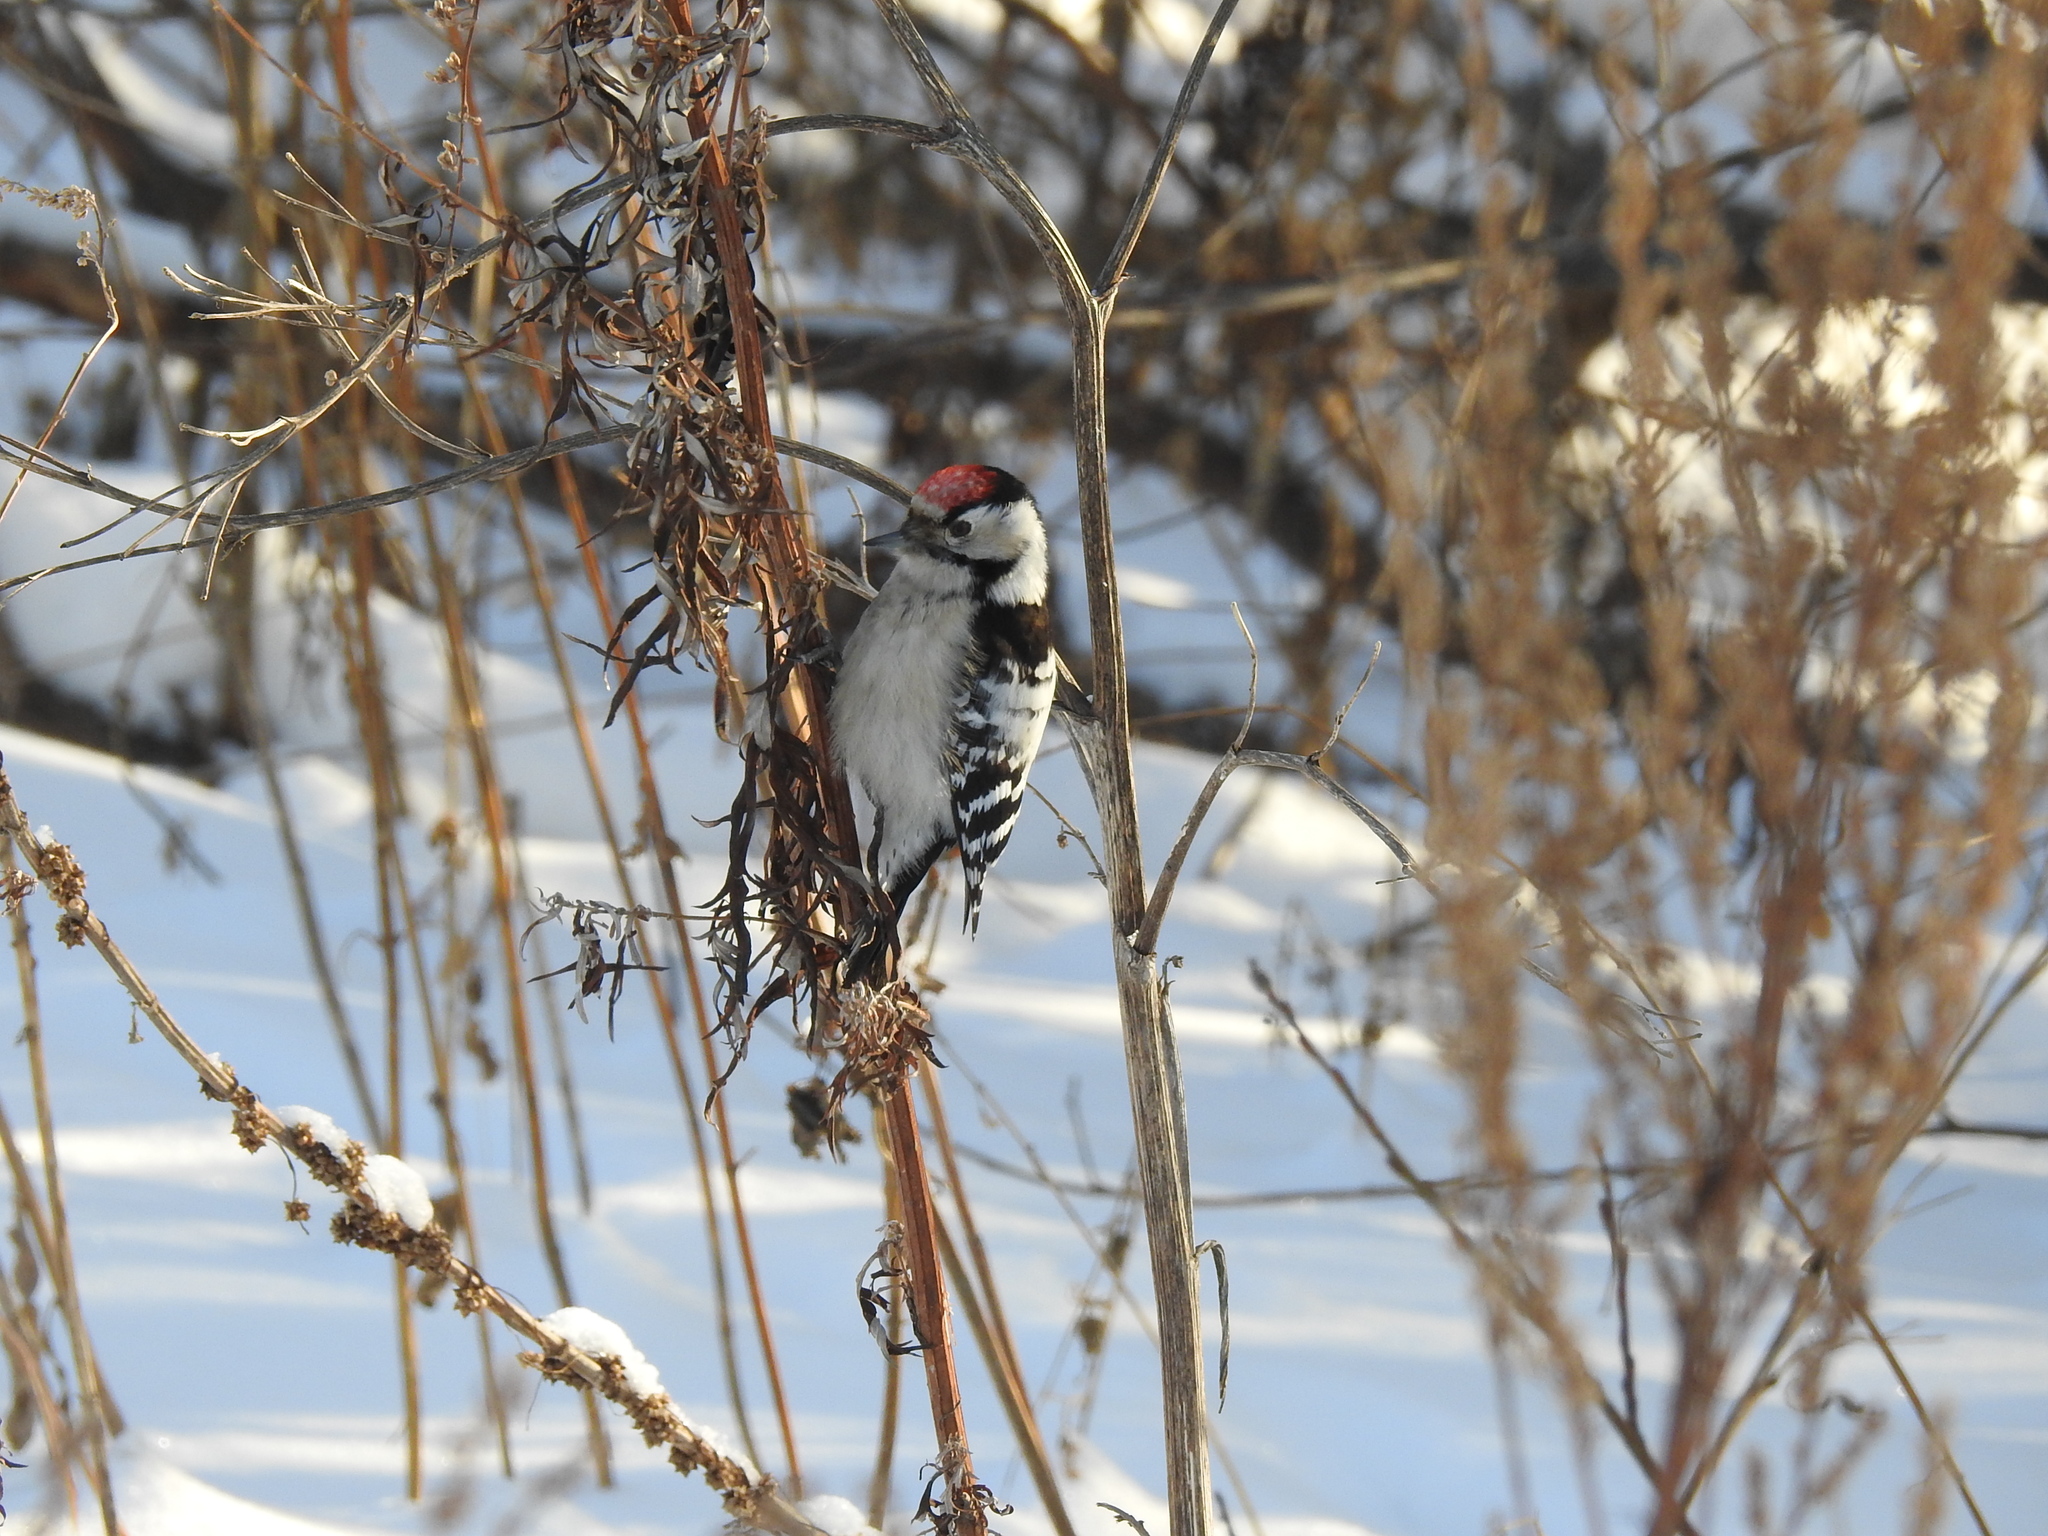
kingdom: Animalia
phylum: Chordata
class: Aves
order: Piciformes
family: Picidae
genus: Dryobates
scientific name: Dryobates minor
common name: Lesser spotted woodpecker
